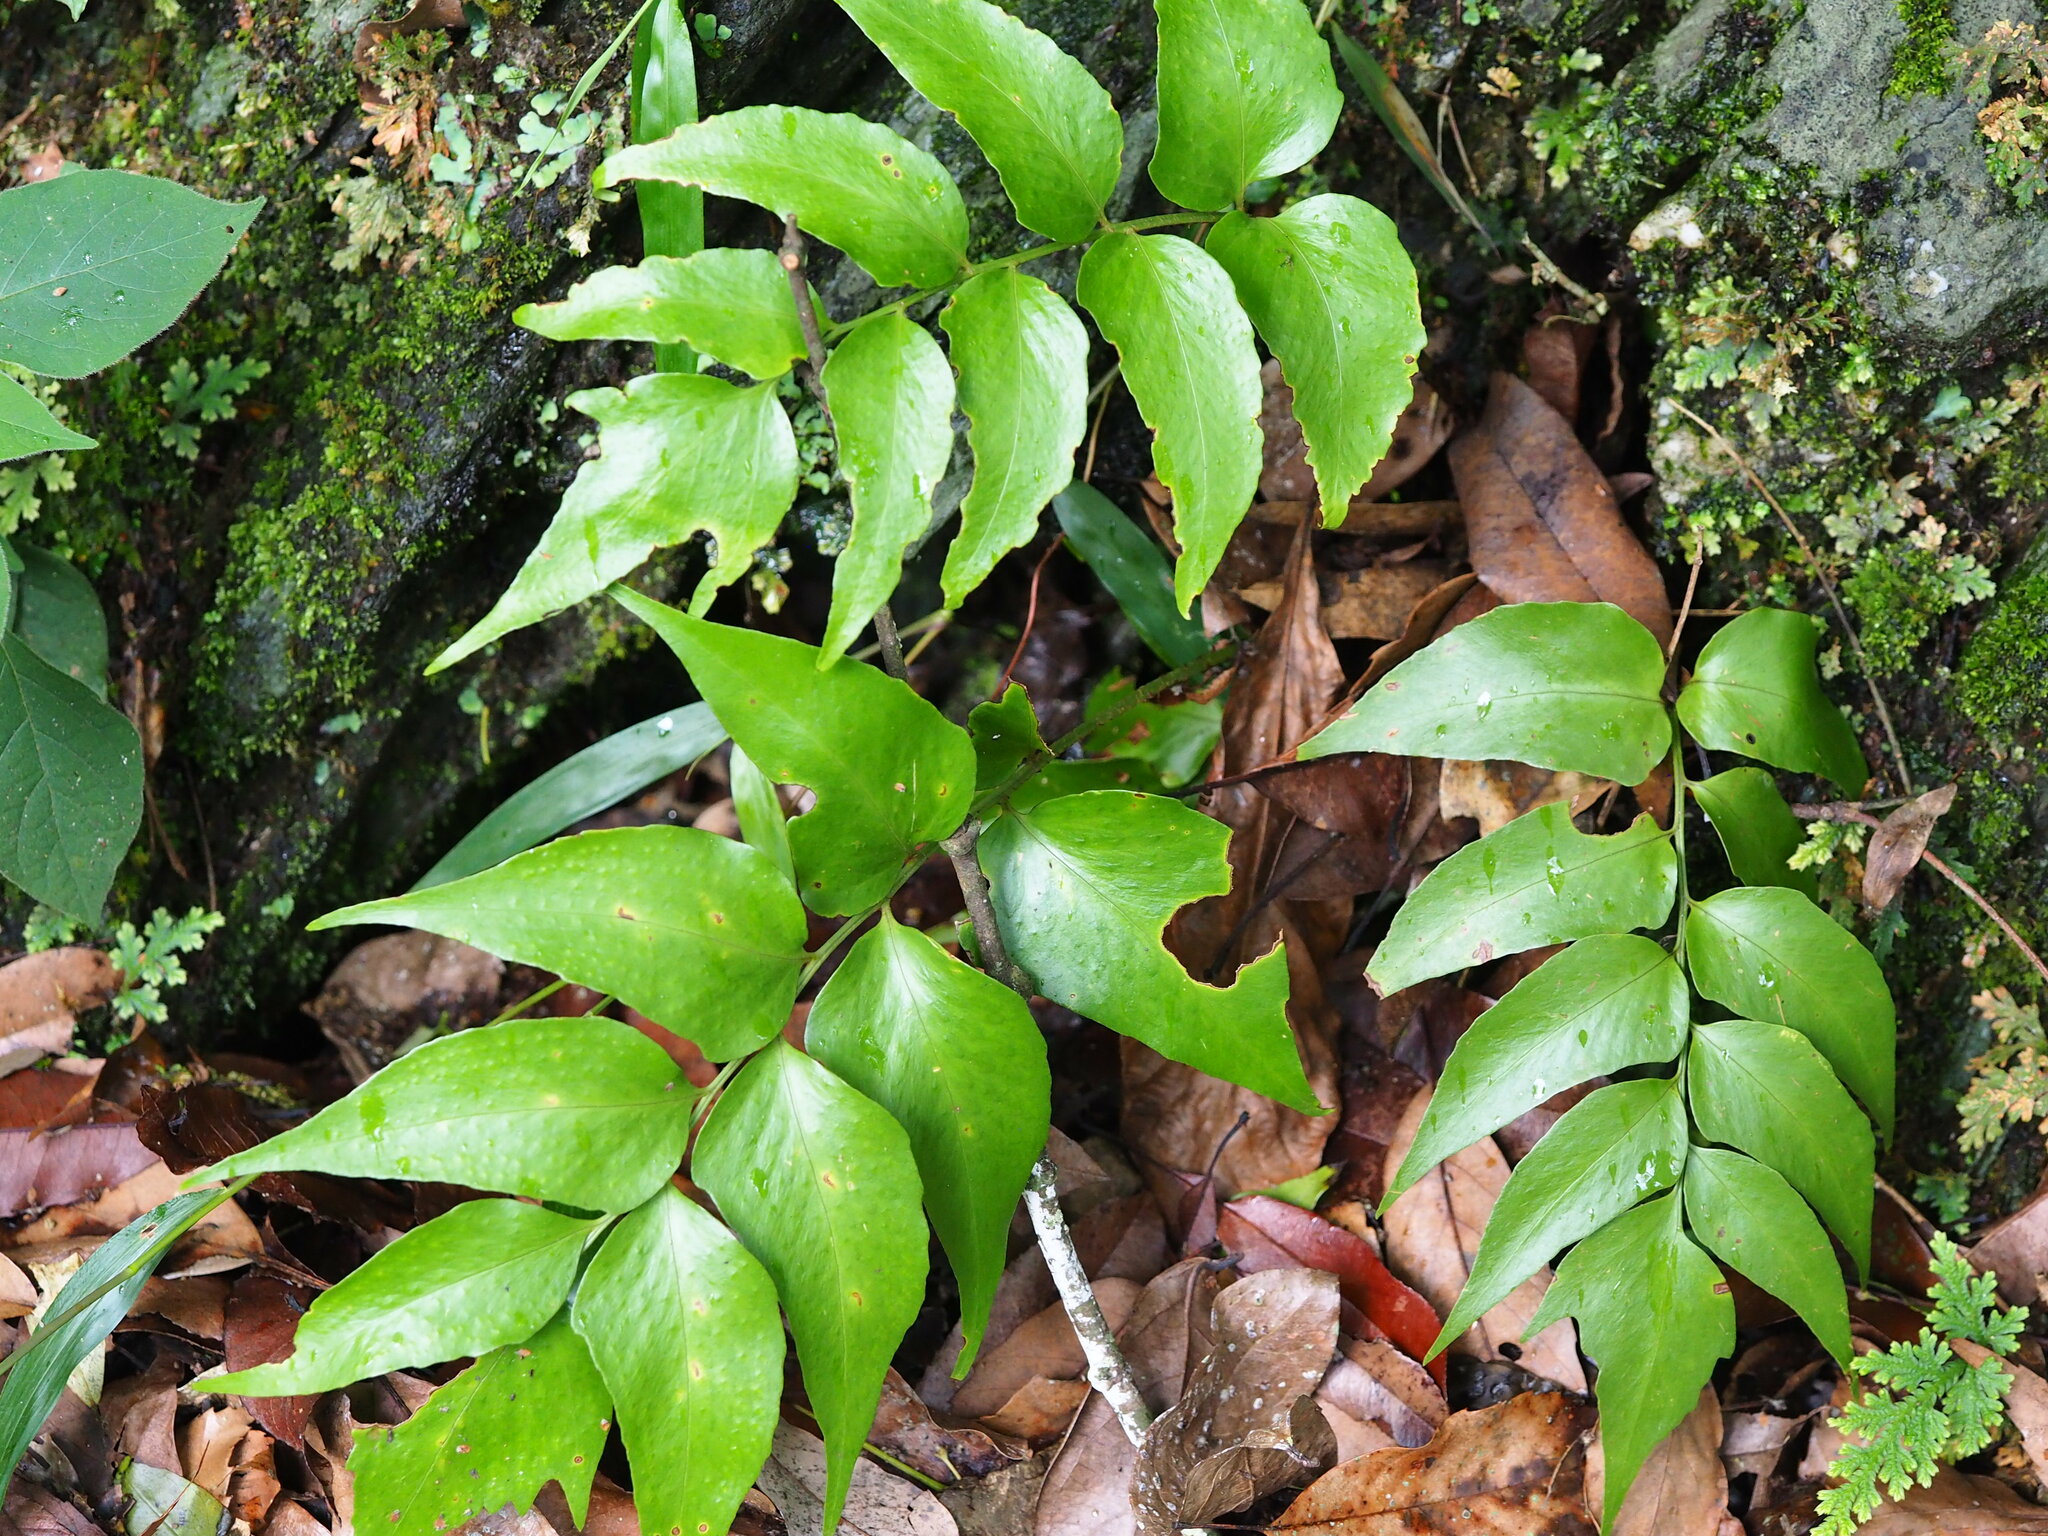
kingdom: Plantae
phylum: Tracheophyta
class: Polypodiopsida
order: Polypodiales
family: Dryopteridaceae
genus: Cyrtomium
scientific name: Cyrtomium falcatum
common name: House holly-fern
